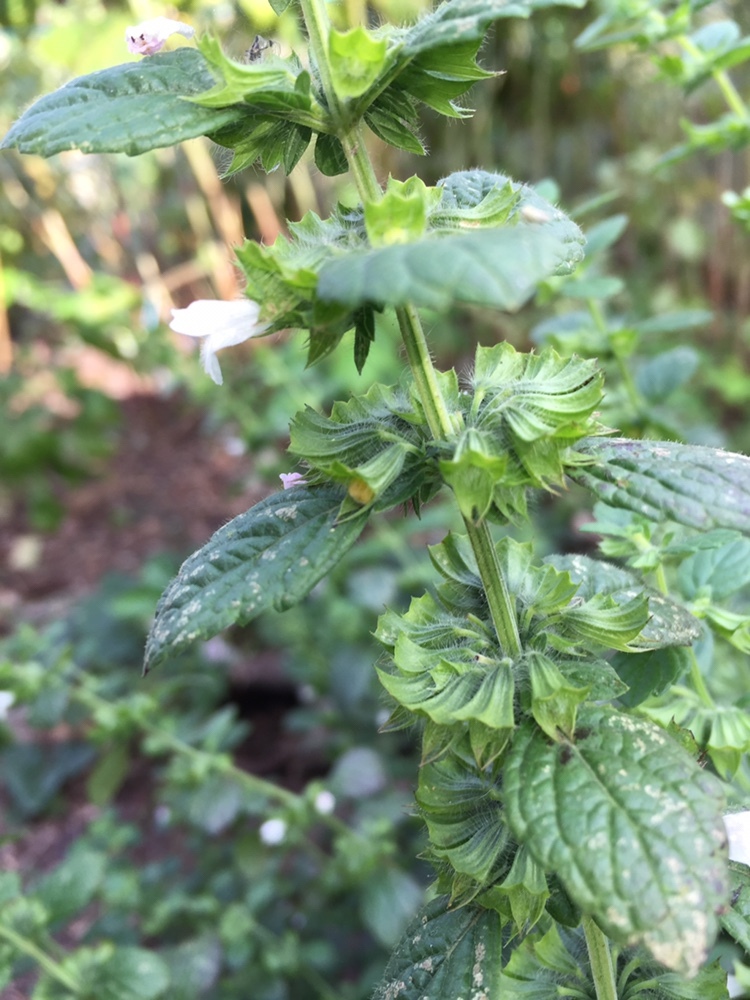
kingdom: Plantae
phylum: Tracheophyta
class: Magnoliopsida
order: Lamiales
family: Lamiaceae
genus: Melissa
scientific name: Melissa officinalis
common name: Balm
